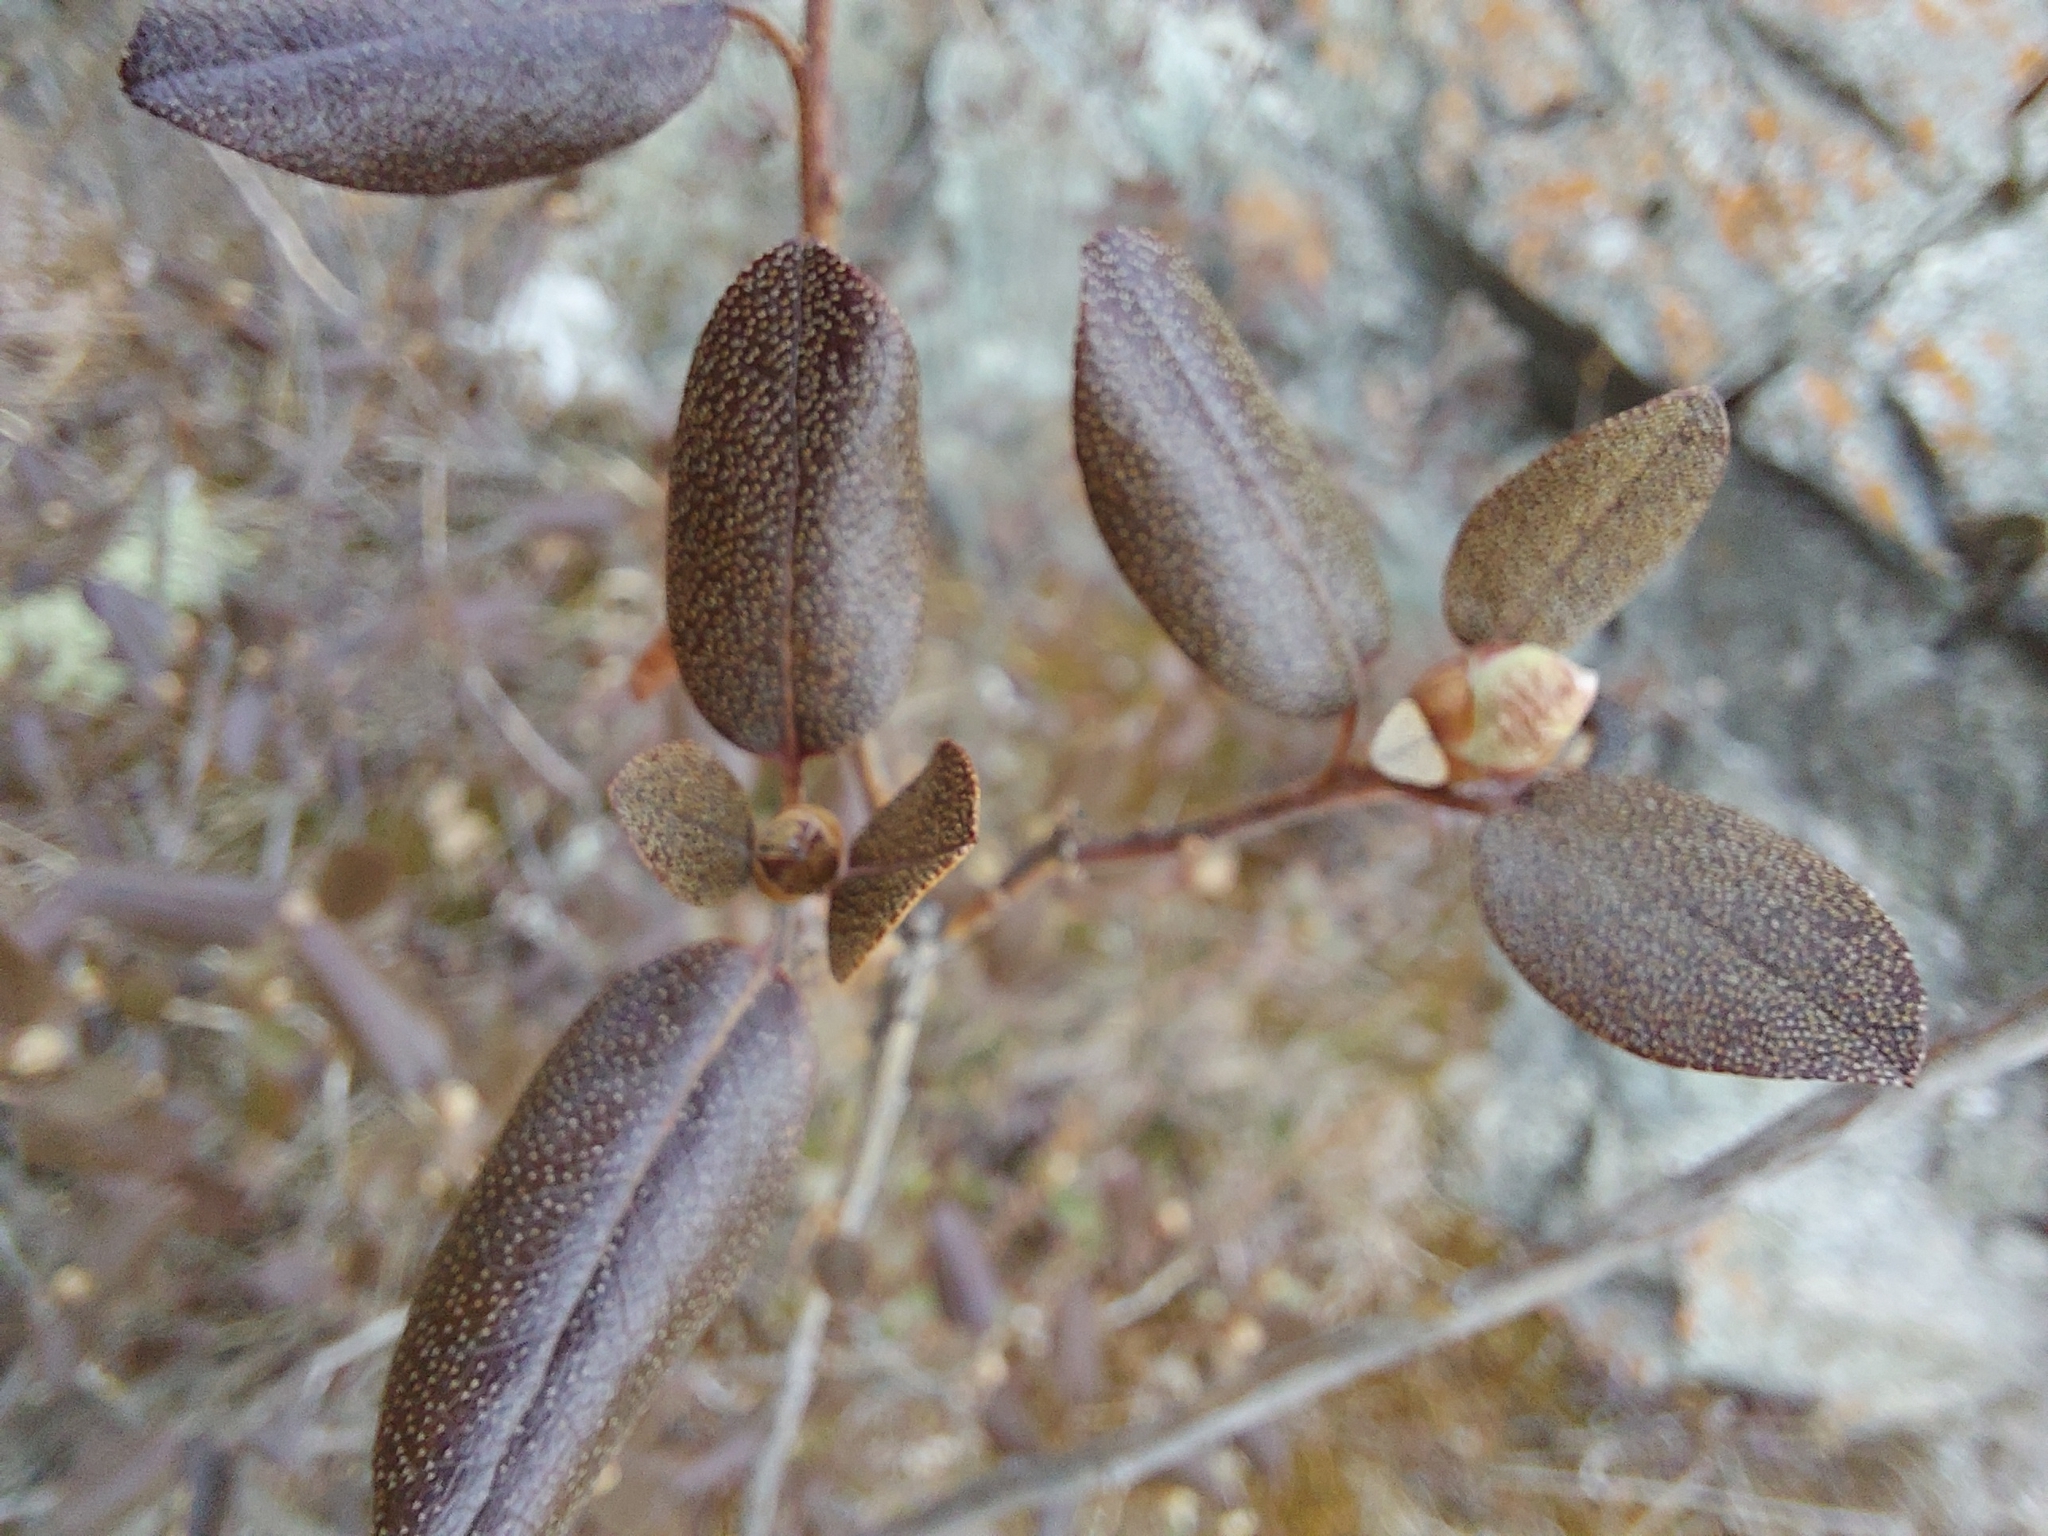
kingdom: Plantae
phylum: Tracheophyta
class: Magnoliopsida
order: Ericales
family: Ericaceae
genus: Rhododendron
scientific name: Rhododendron dauricum
